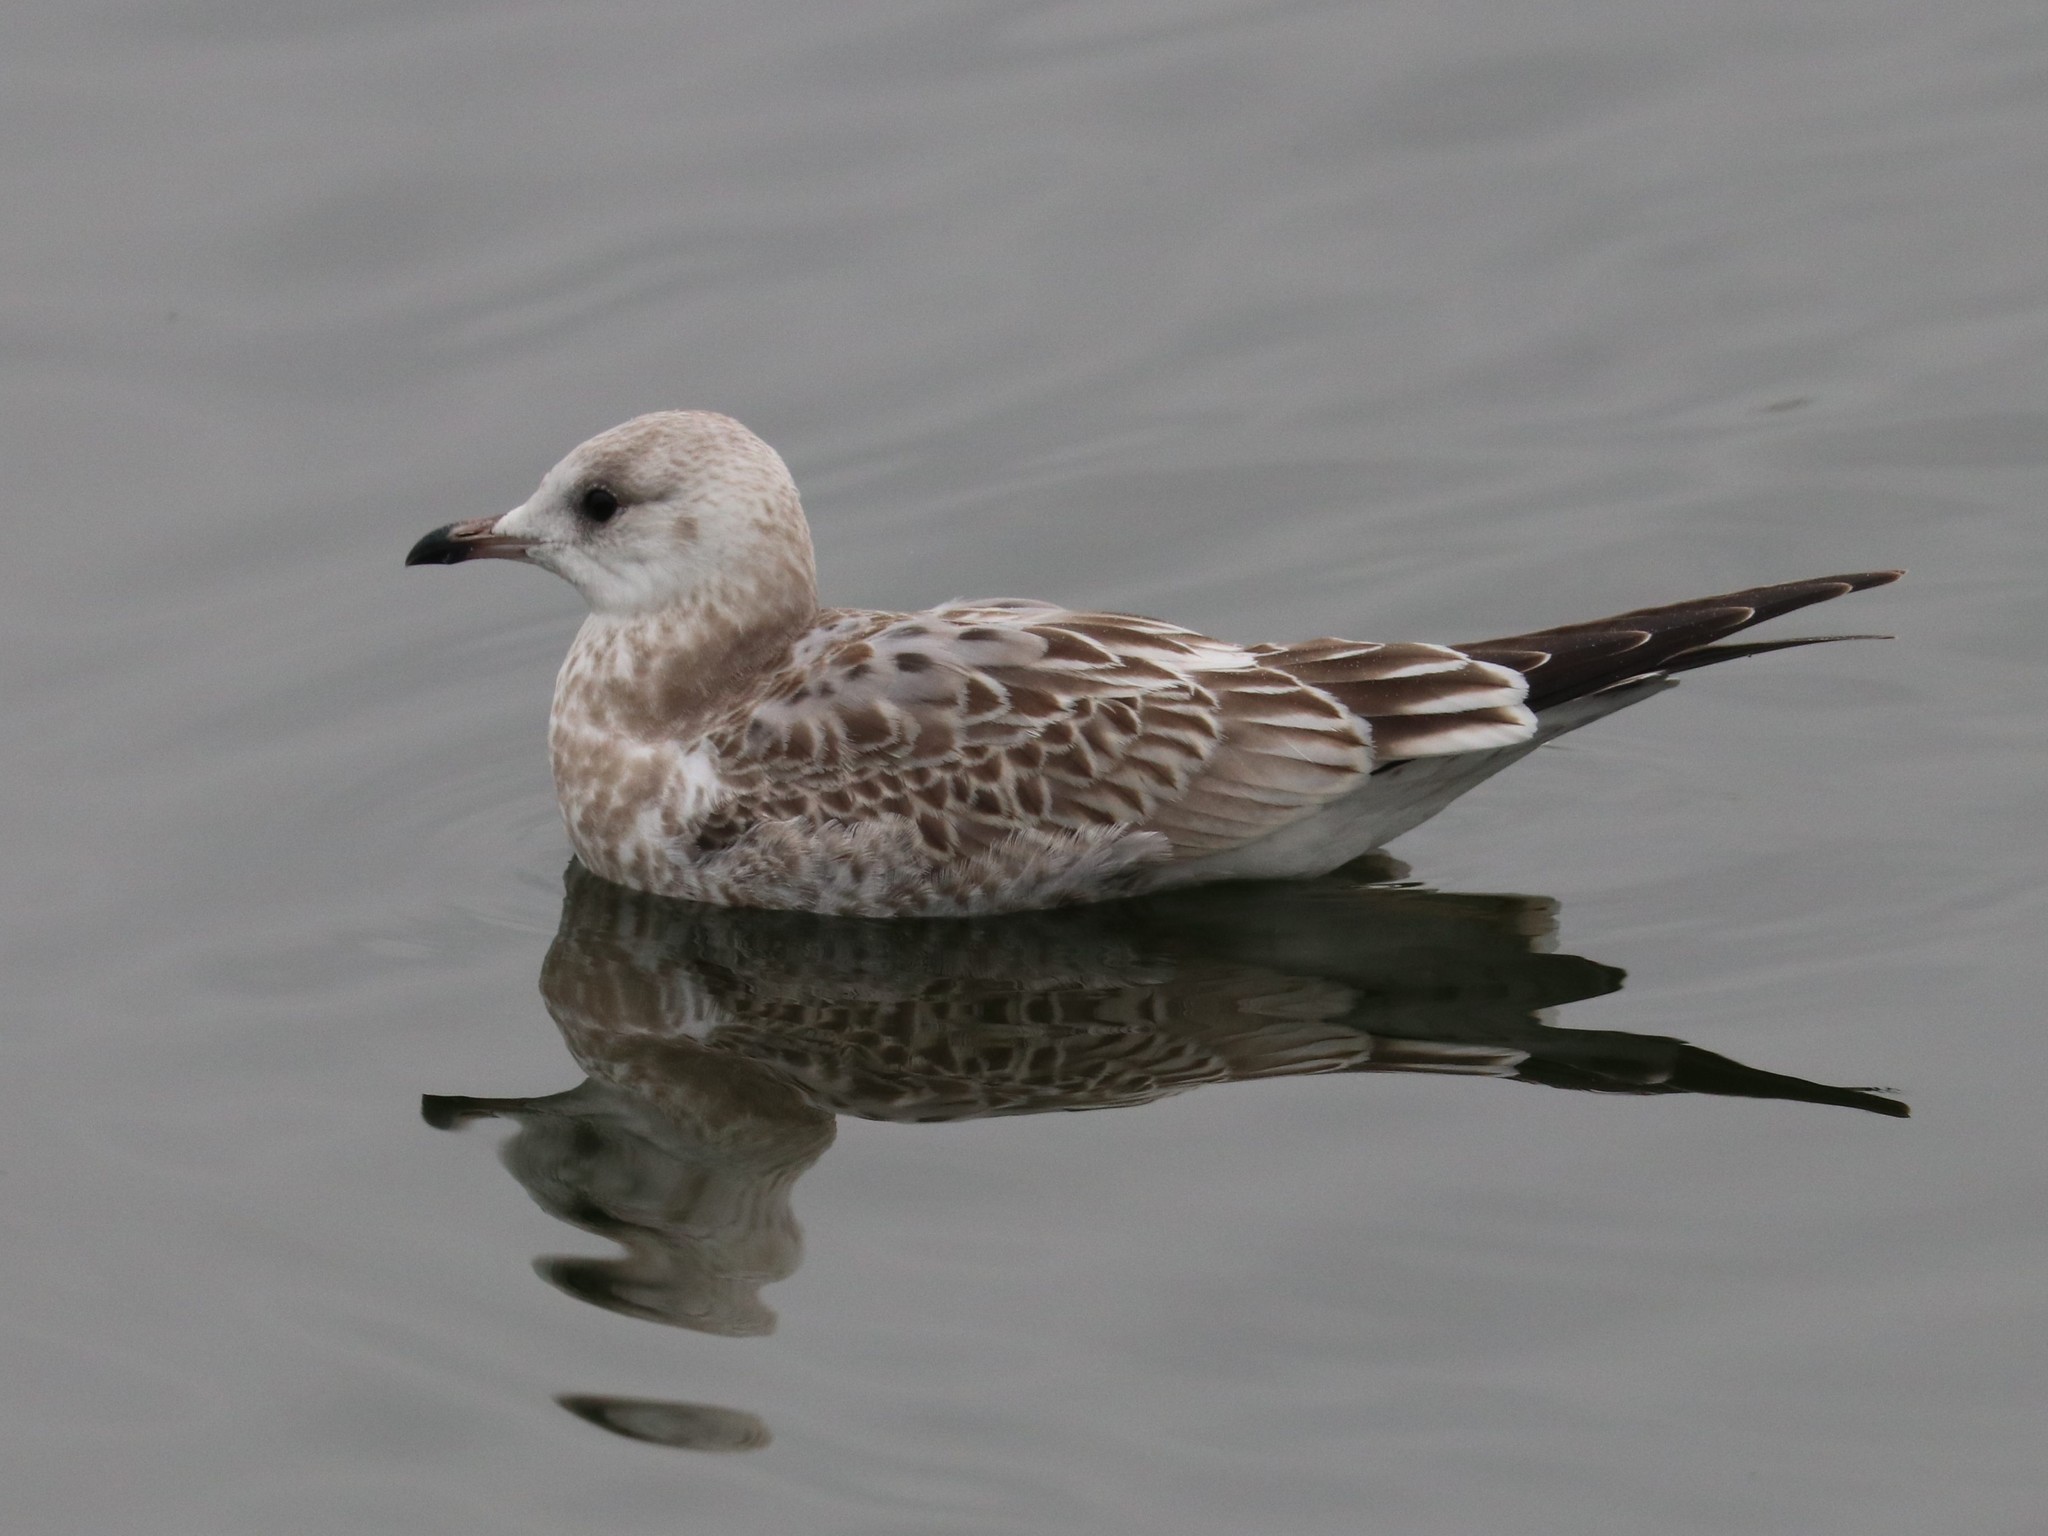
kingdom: Animalia
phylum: Chordata
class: Aves
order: Charadriiformes
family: Laridae
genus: Larus
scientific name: Larus canus
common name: Mew gull
